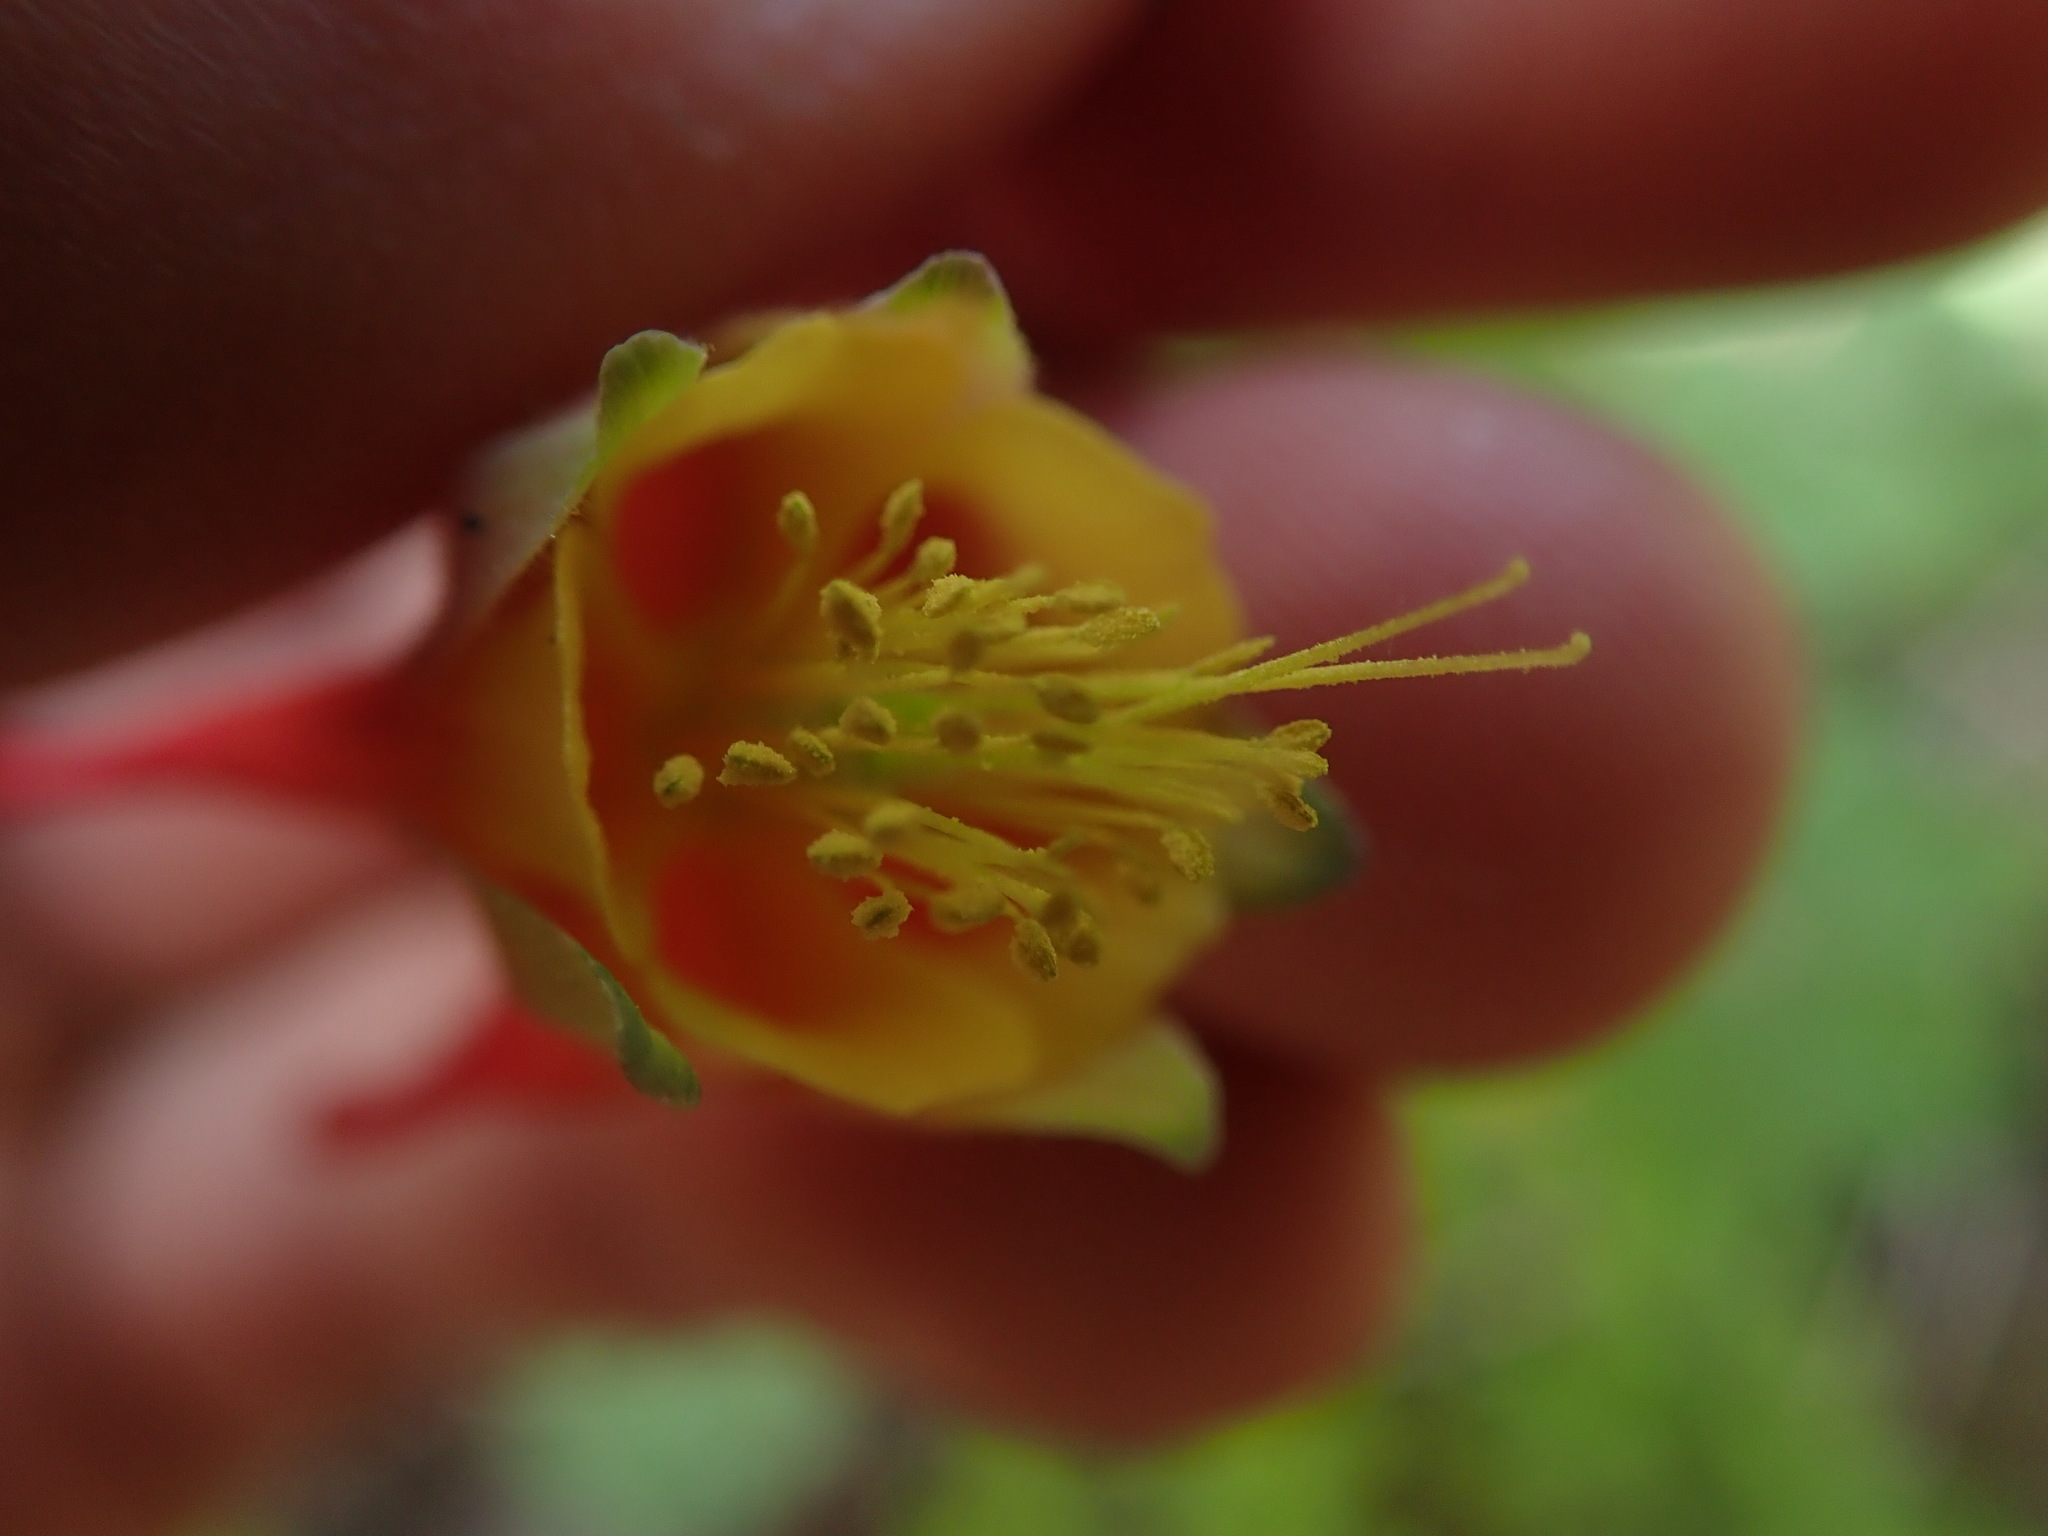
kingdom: Plantae
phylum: Tracheophyta
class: Magnoliopsida
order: Ranunculales
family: Ranunculaceae
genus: Aquilegia
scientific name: Aquilegia elegantula
